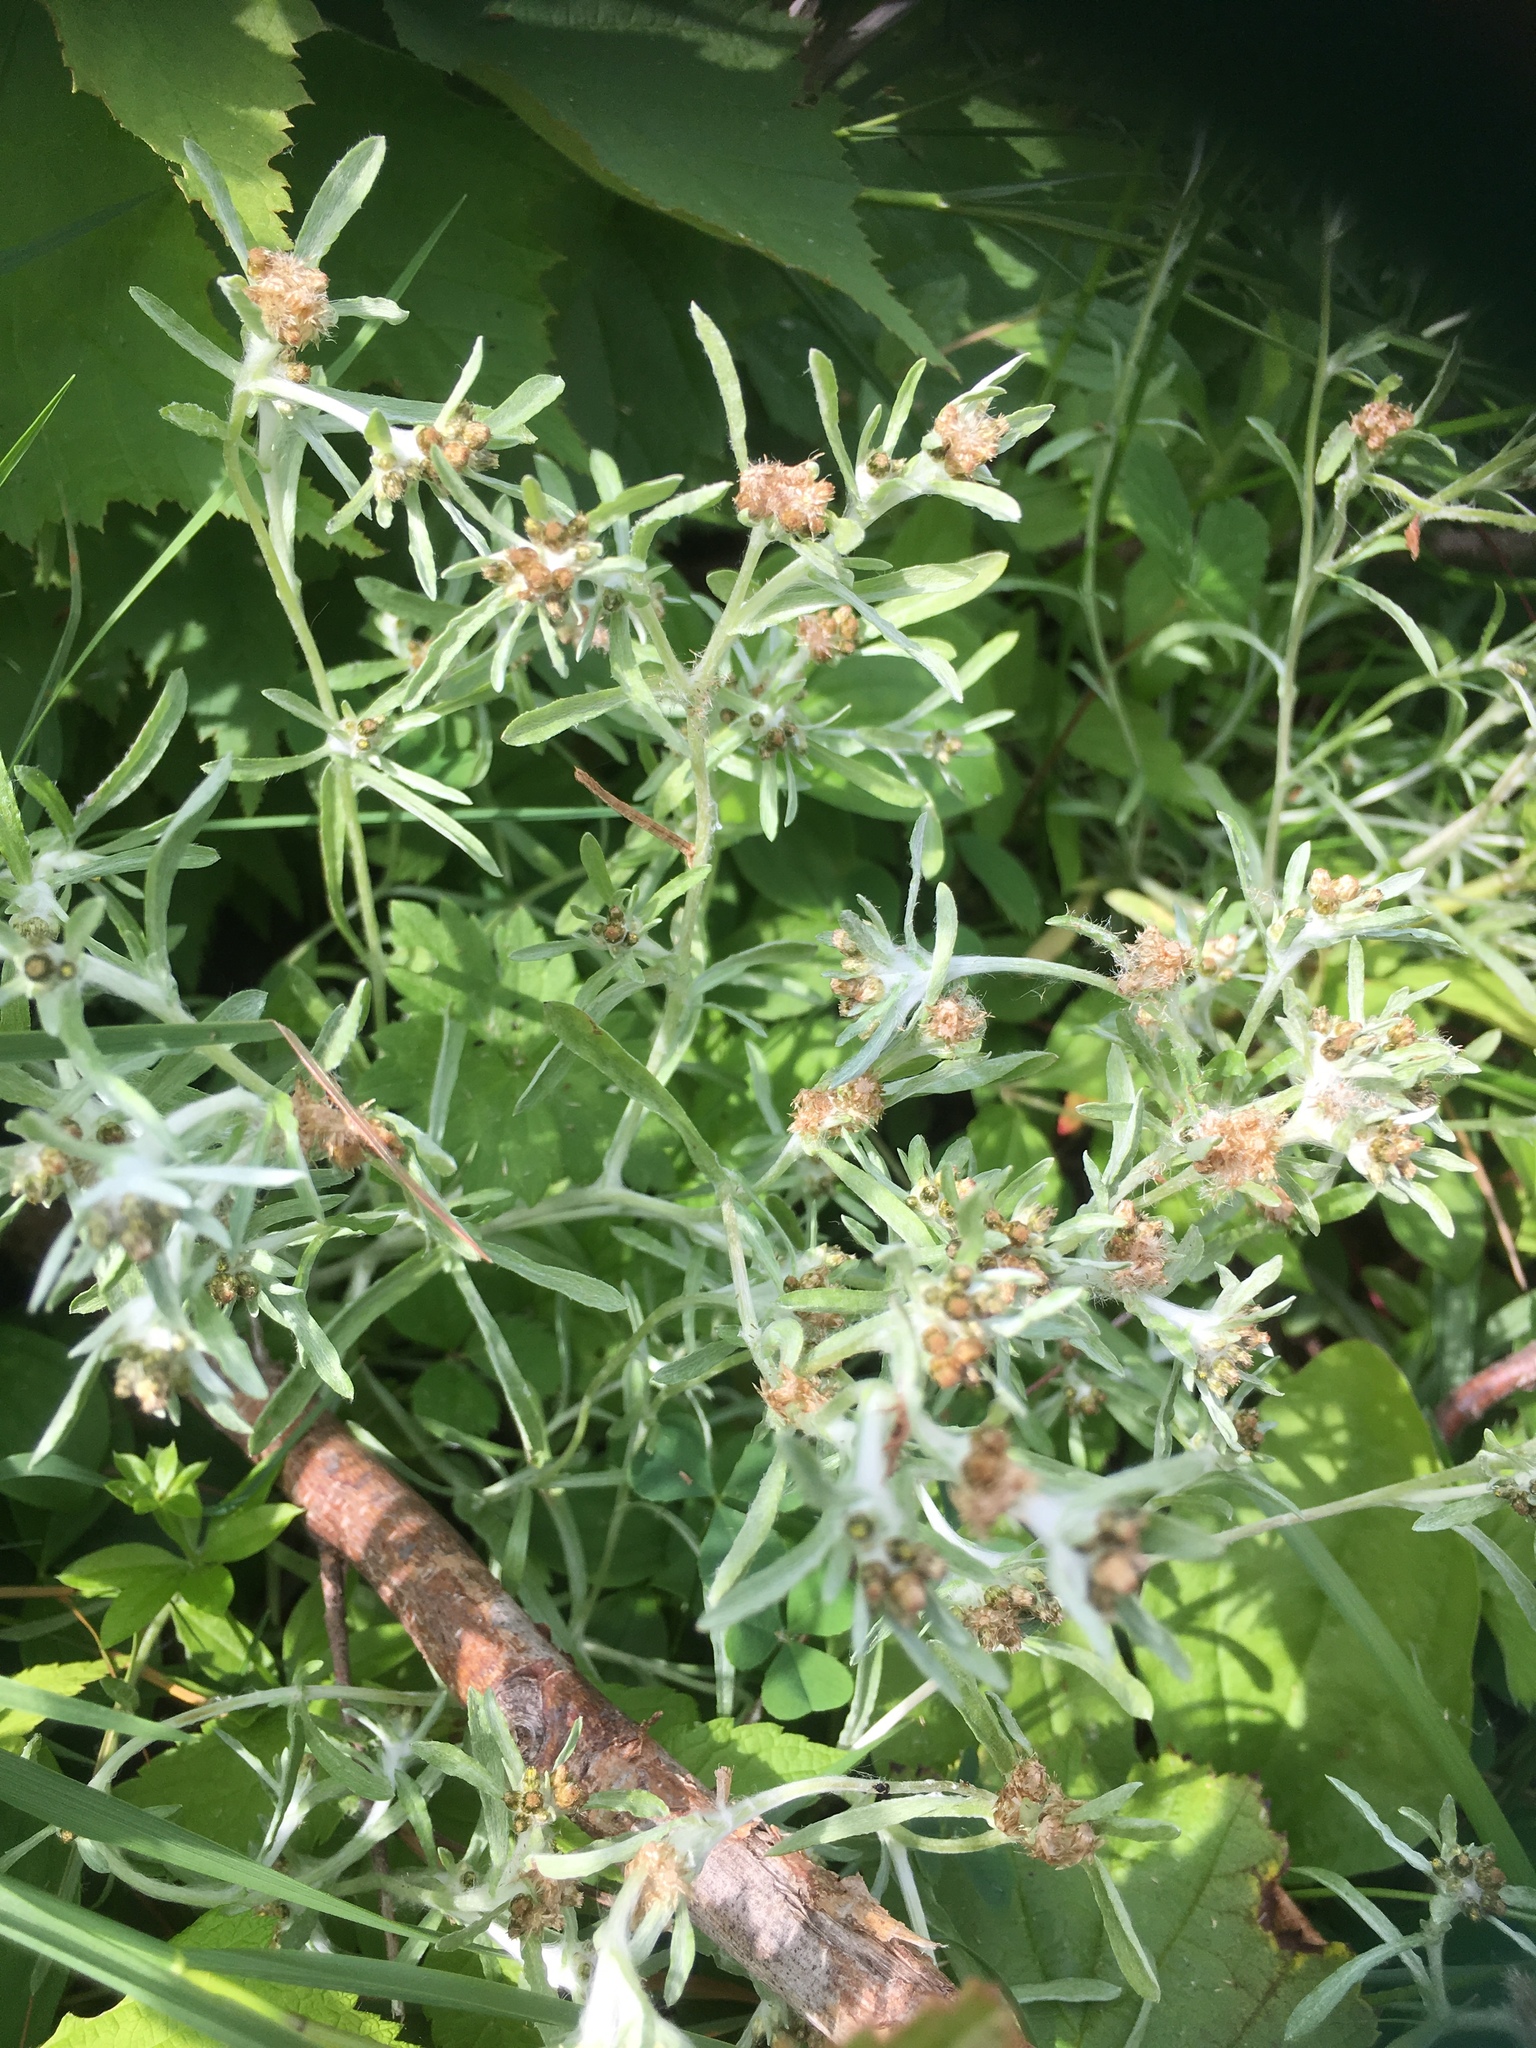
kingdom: Plantae
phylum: Tracheophyta
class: Magnoliopsida
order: Asterales
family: Asteraceae
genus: Gnaphalium
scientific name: Gnaphalium uliginosum
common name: Marsh cudweed
